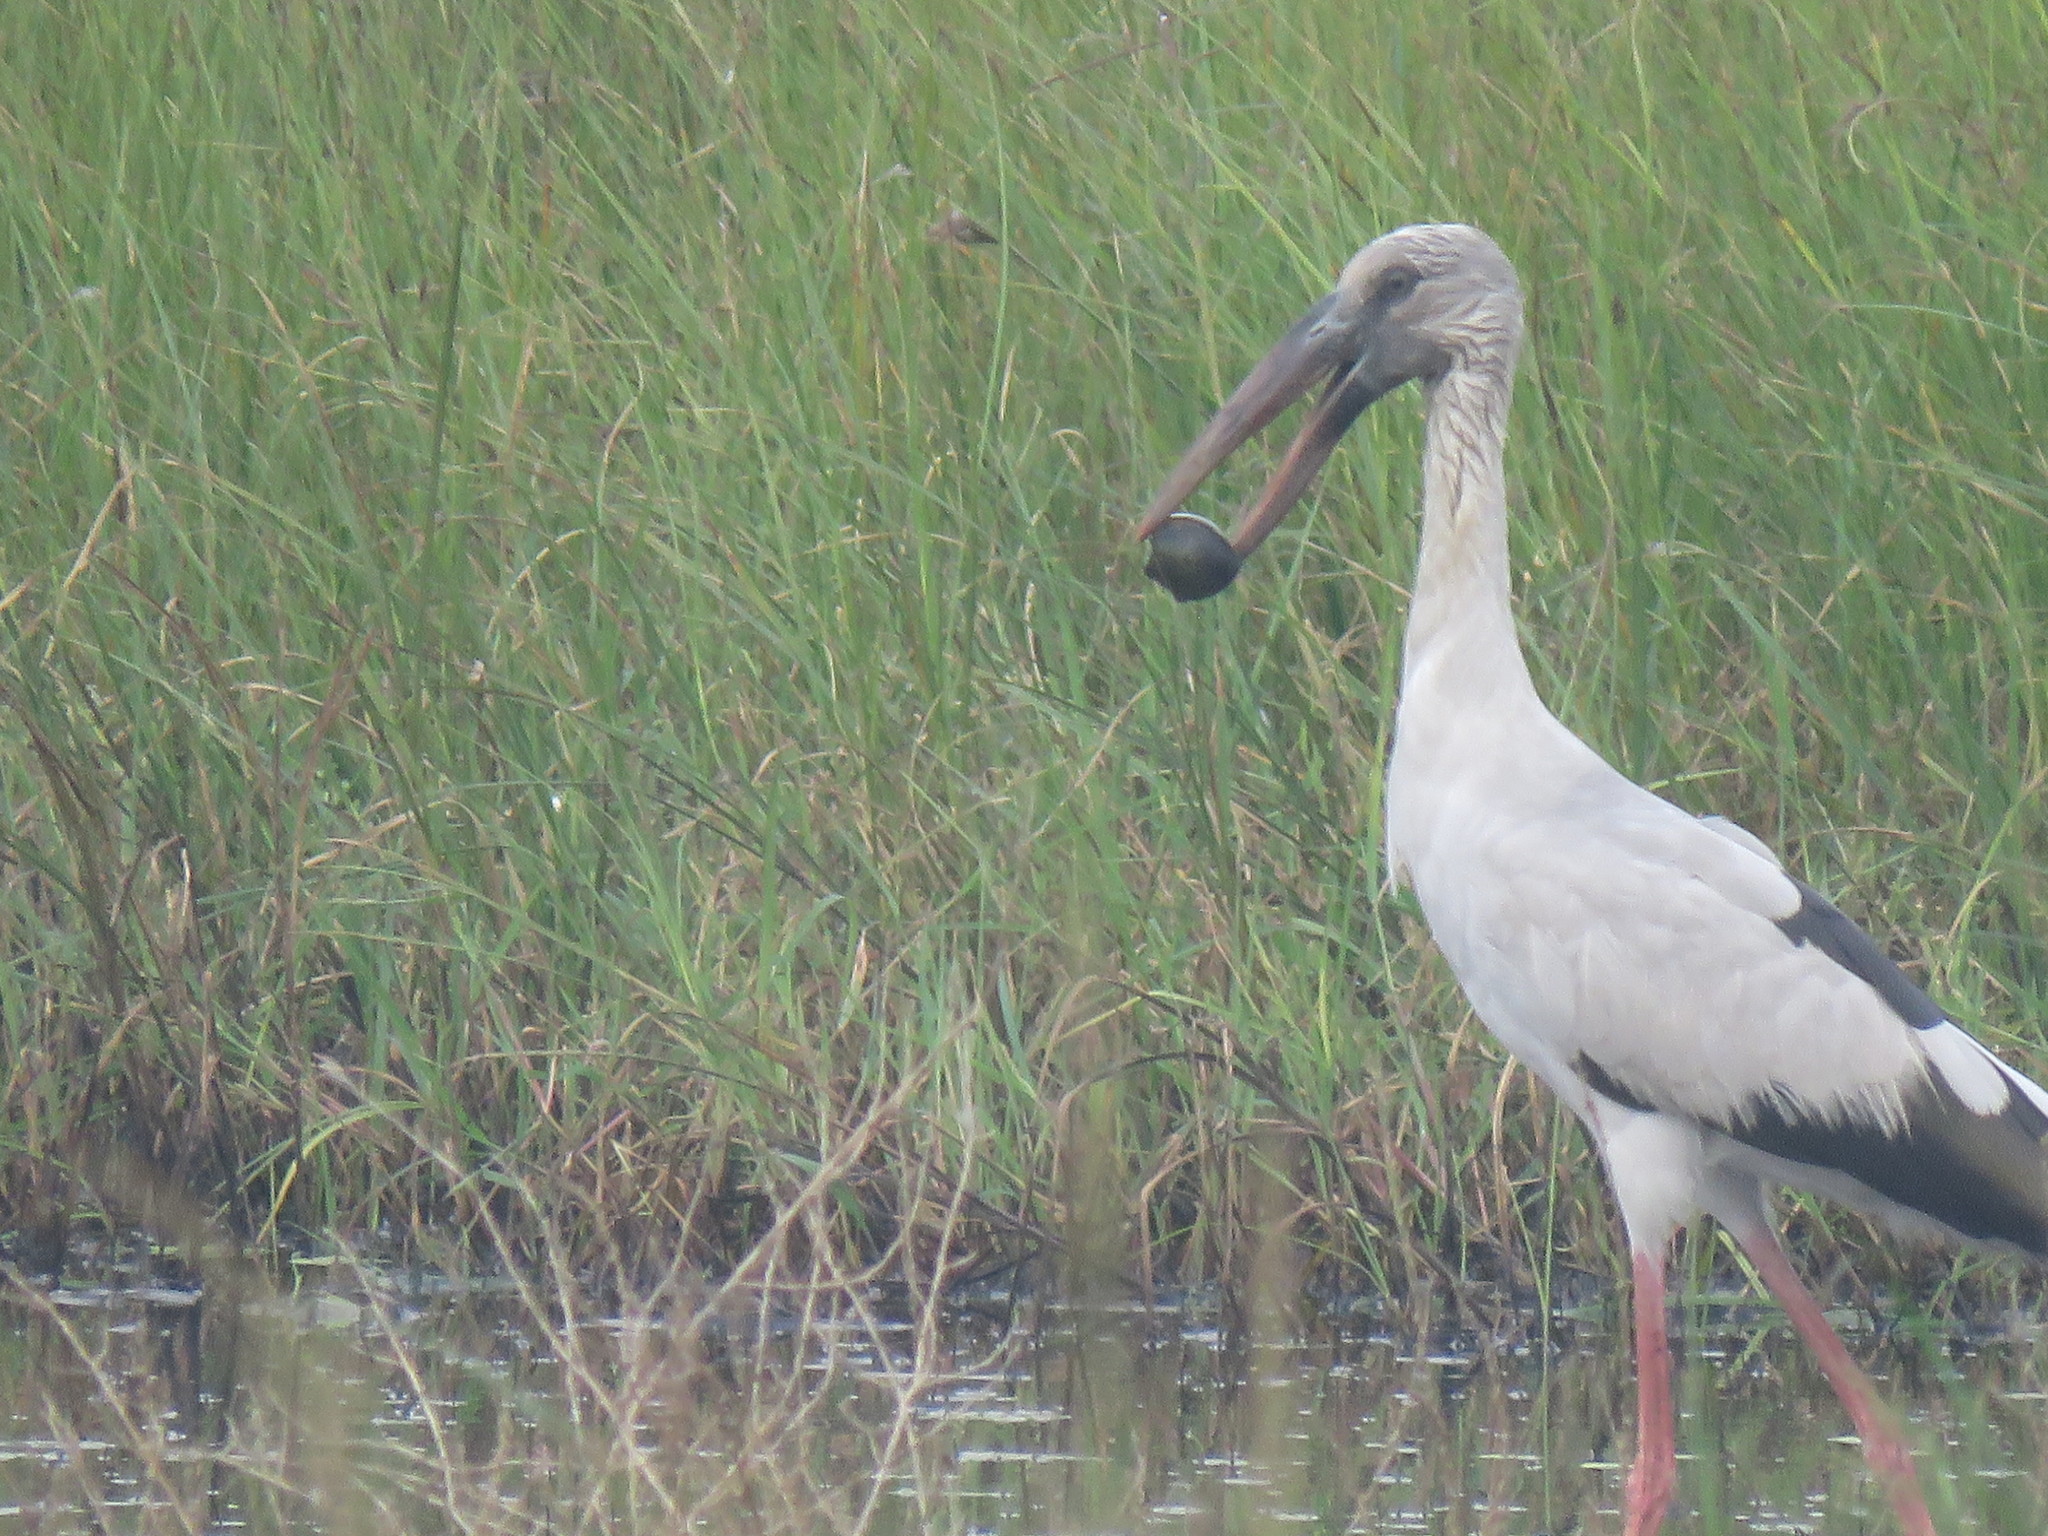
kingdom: Animalia
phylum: Chordata
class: Aves
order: Ciconiiformes
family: Ciconiidae
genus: Anastomus
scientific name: Anastomus oscitans
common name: Asian openbill
